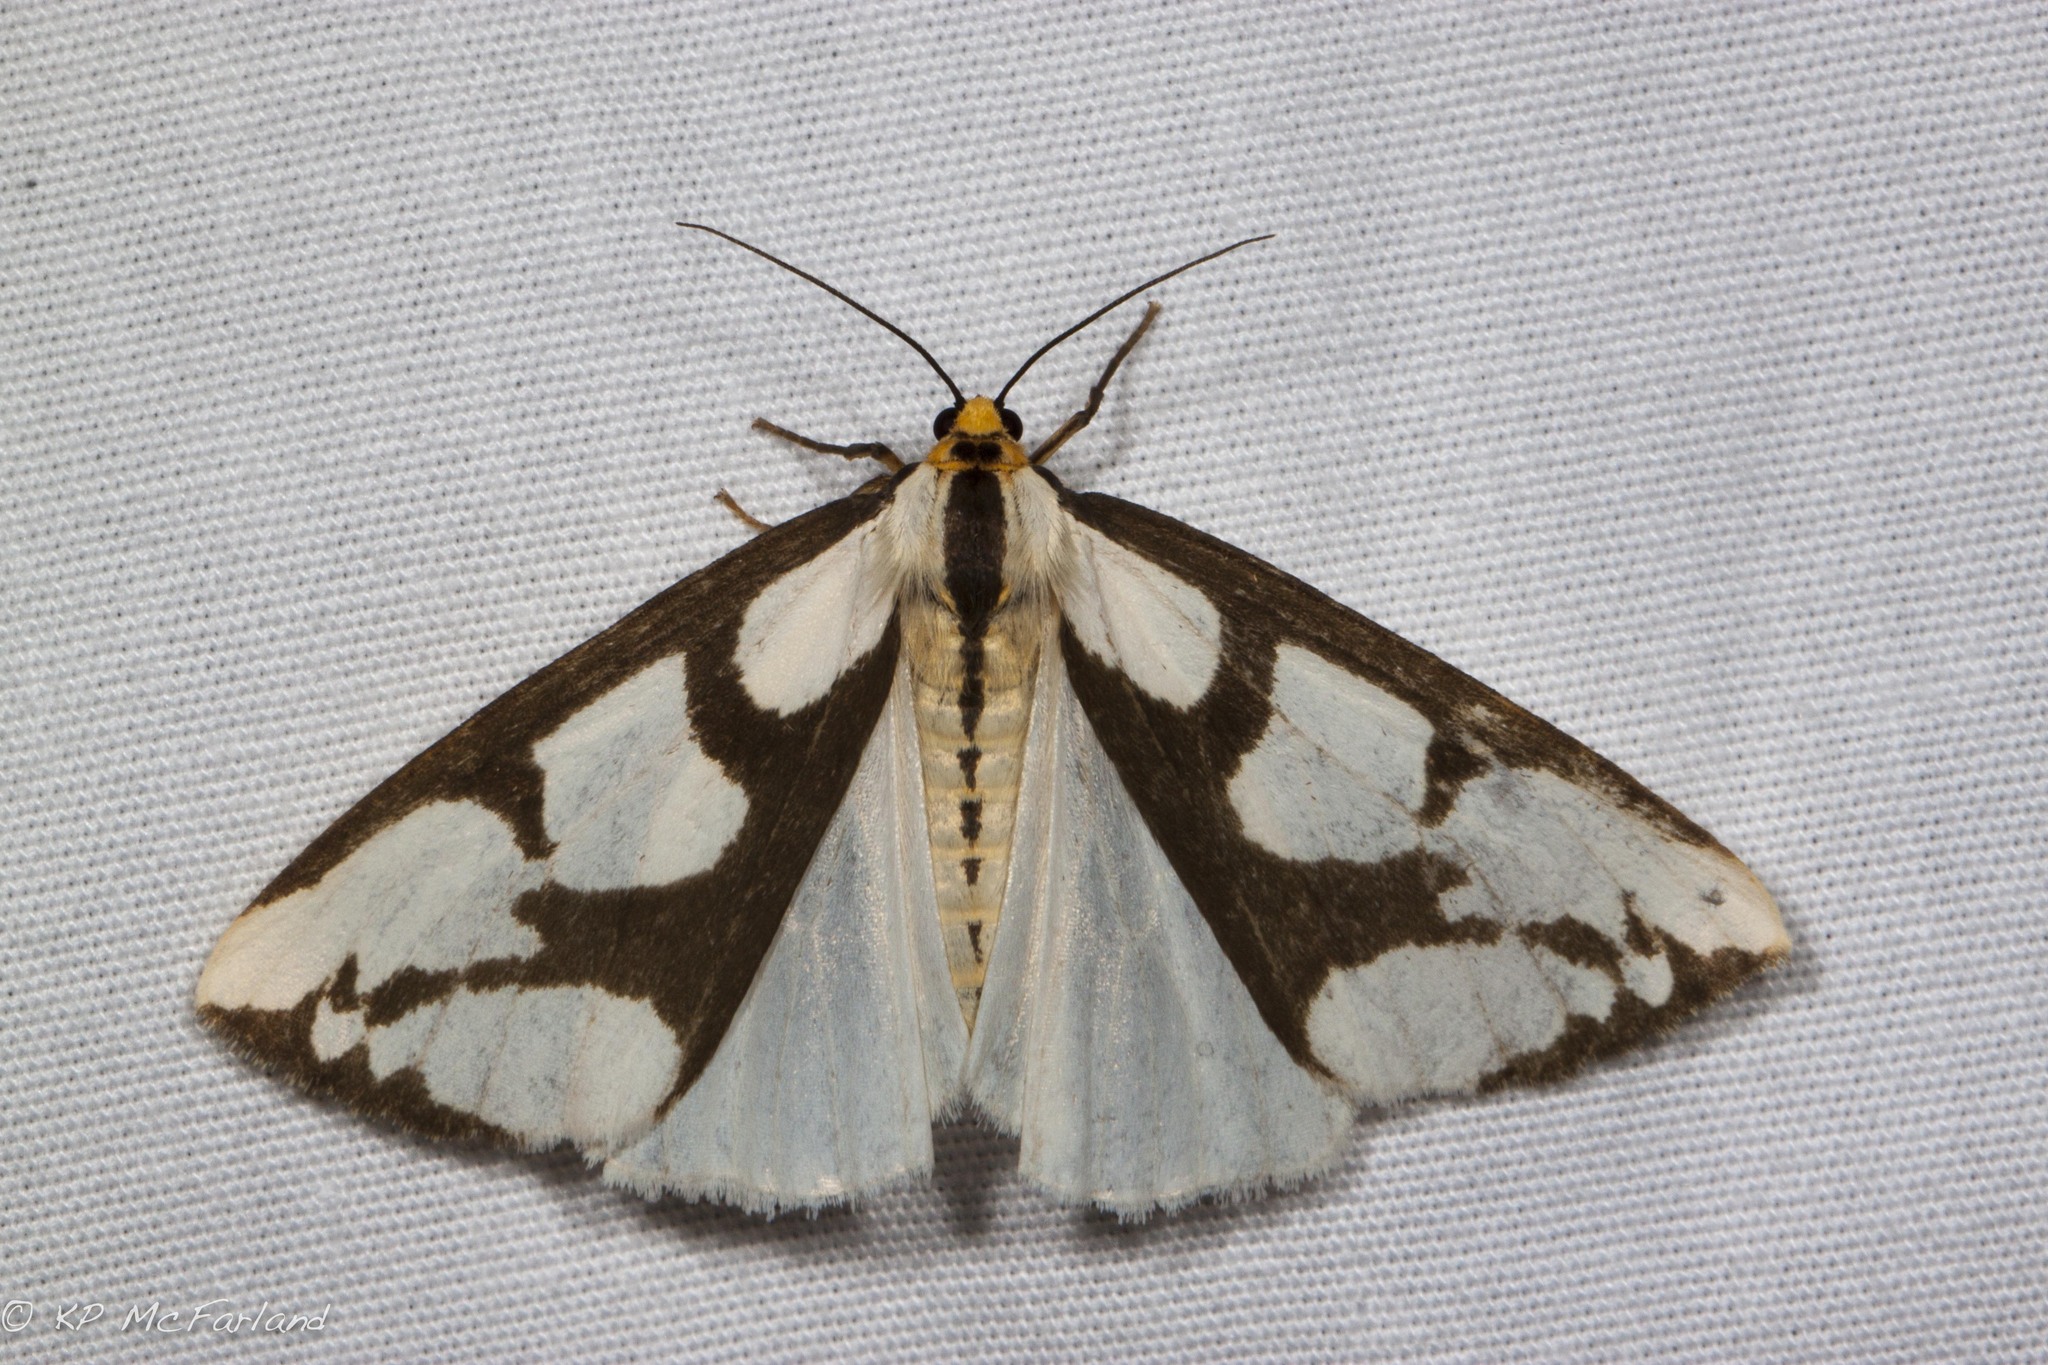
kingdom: Animalia
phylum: Arthropoda
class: Insecta
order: Lepidoptera
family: Erebidae
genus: Haploa
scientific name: Haploa lecontei
